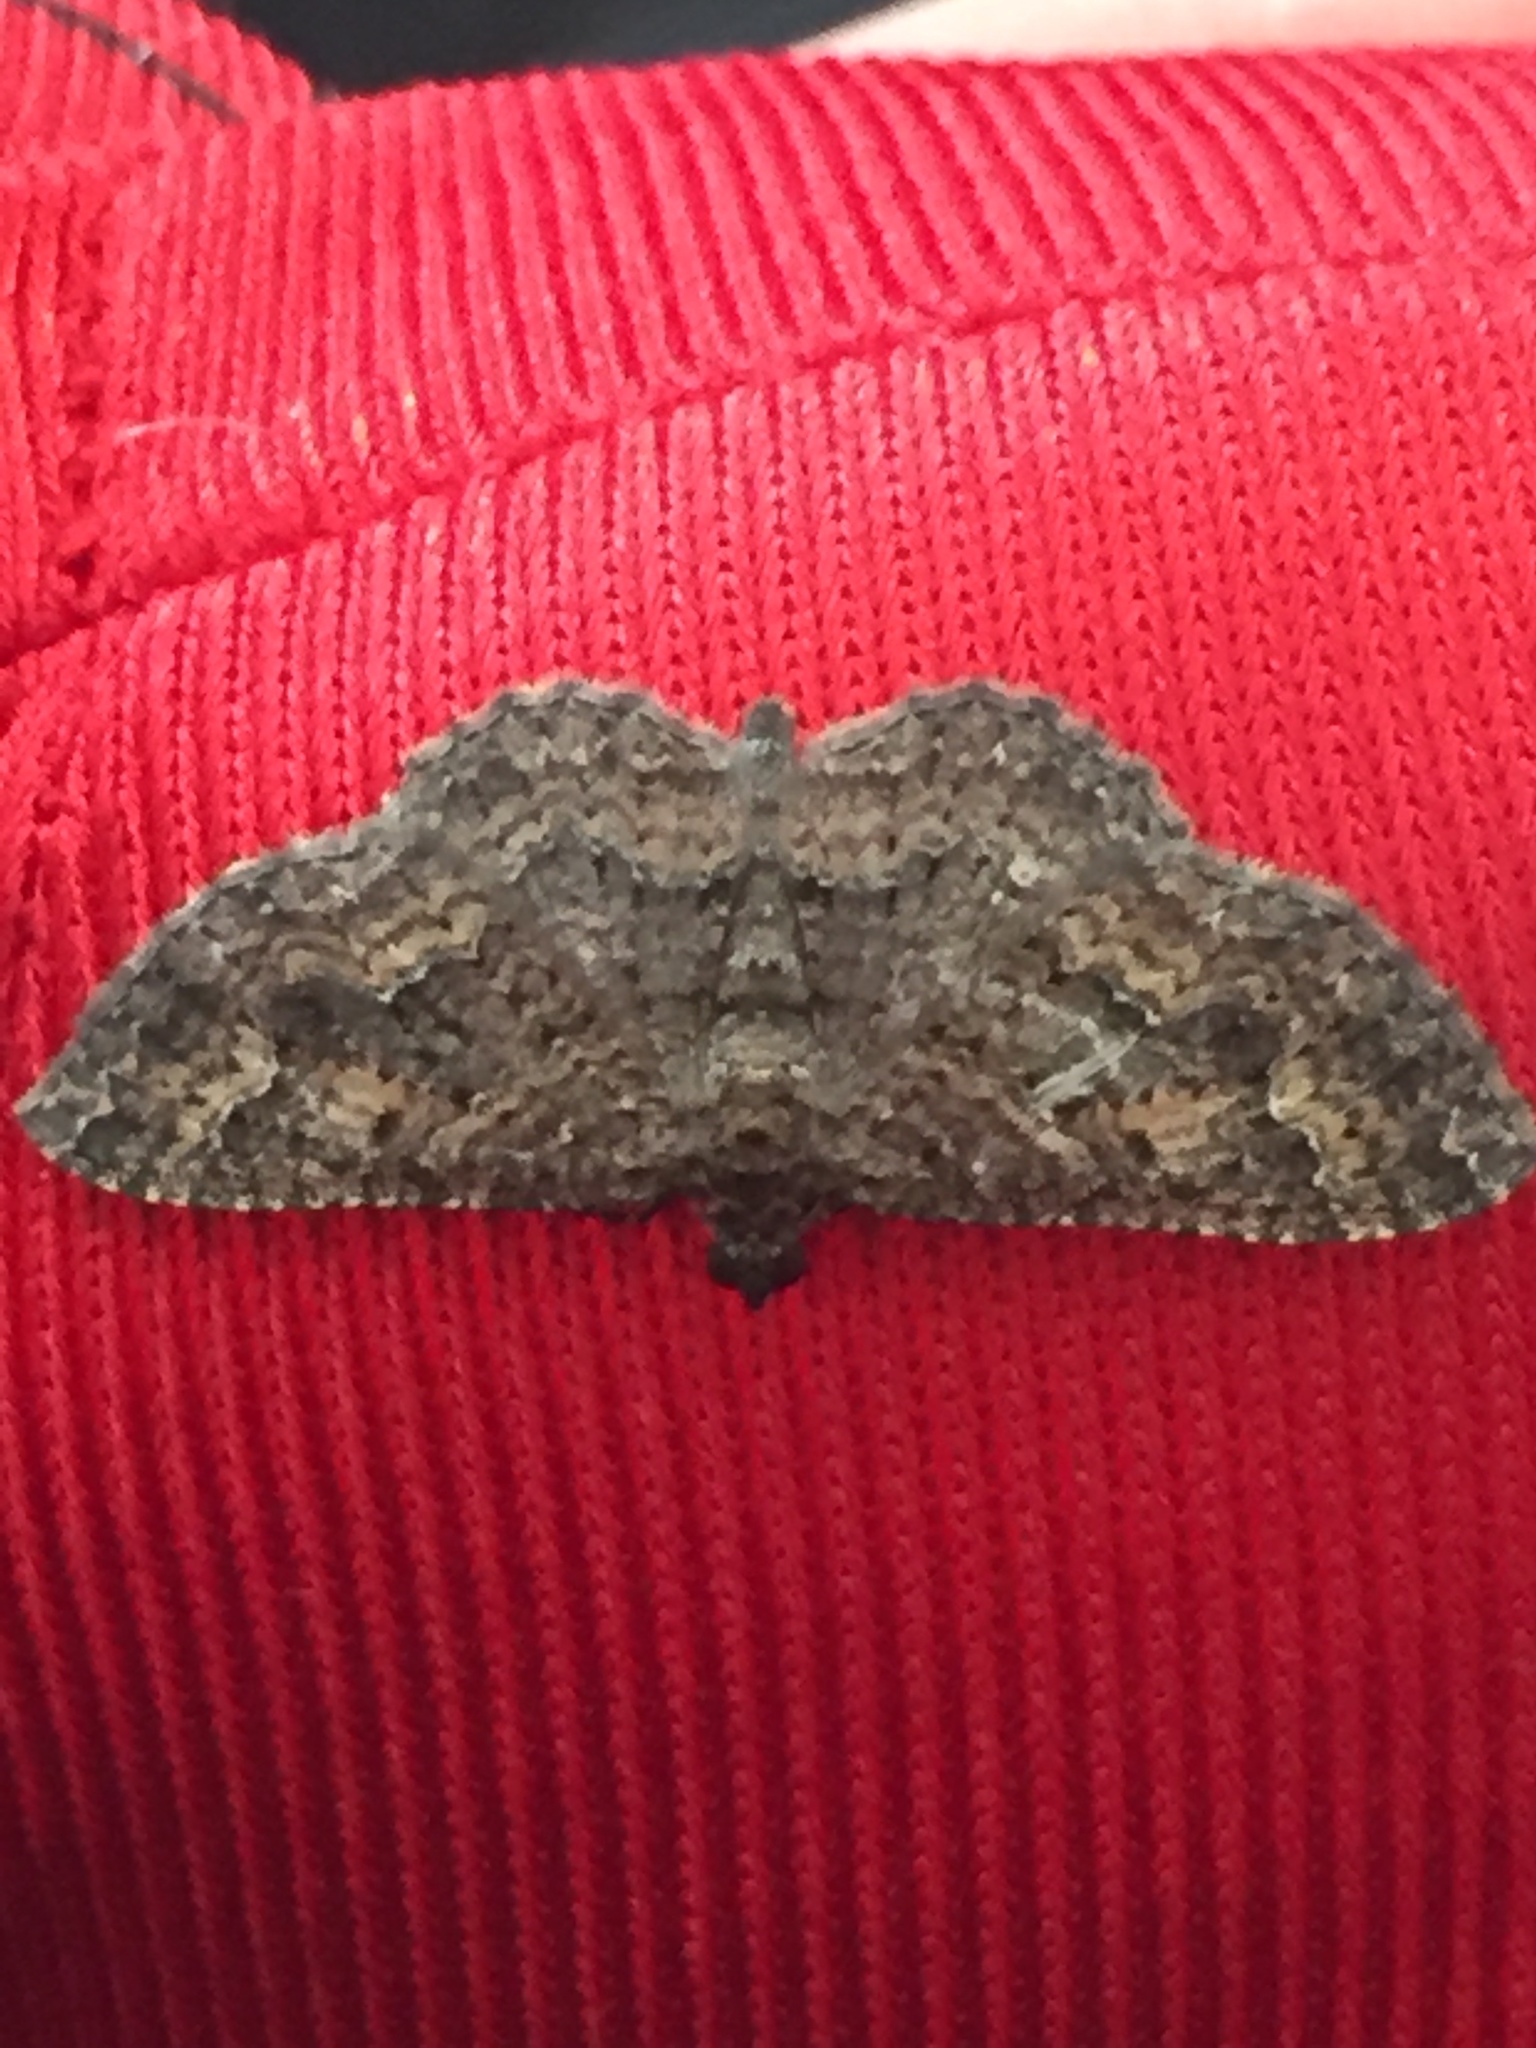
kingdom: Animalia
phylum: Arthropoda
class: Insecta
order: Lepidoptera
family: Geometridae
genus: Disclisioprocta
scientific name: Disclisioprocta stellata
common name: Somber carpet
